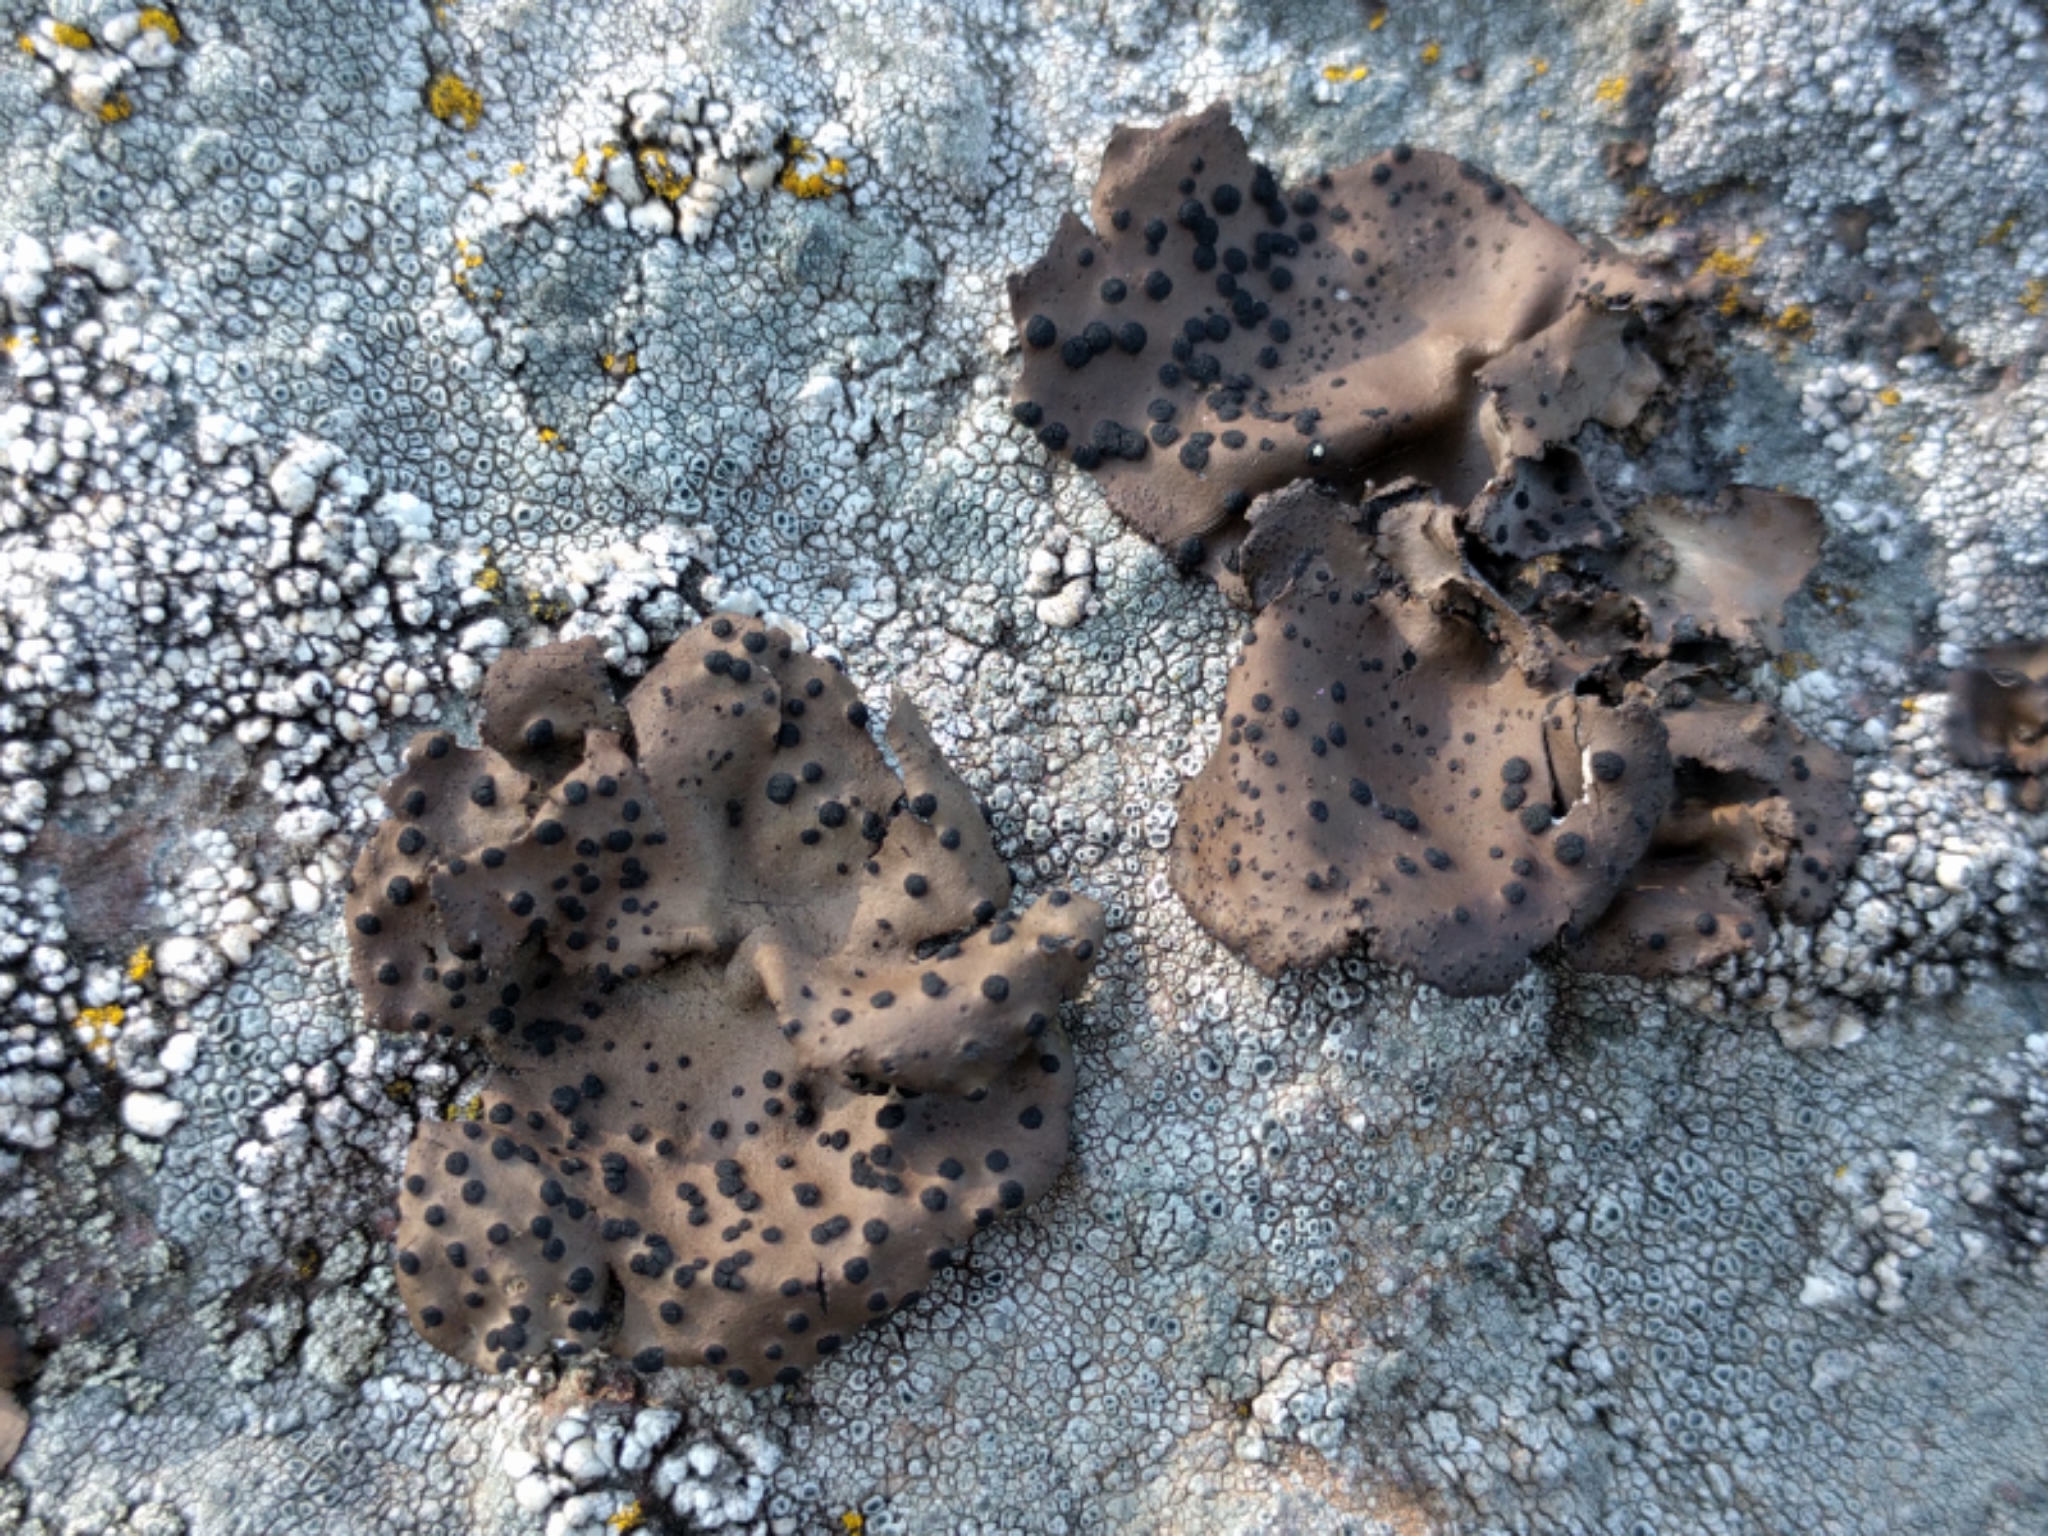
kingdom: Fungi
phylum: Ascomycota
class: Lecanoromycetes
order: Umbilicariales
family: Umbilicariaceae
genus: Umbilicaria
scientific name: Umbilicaria phaea
